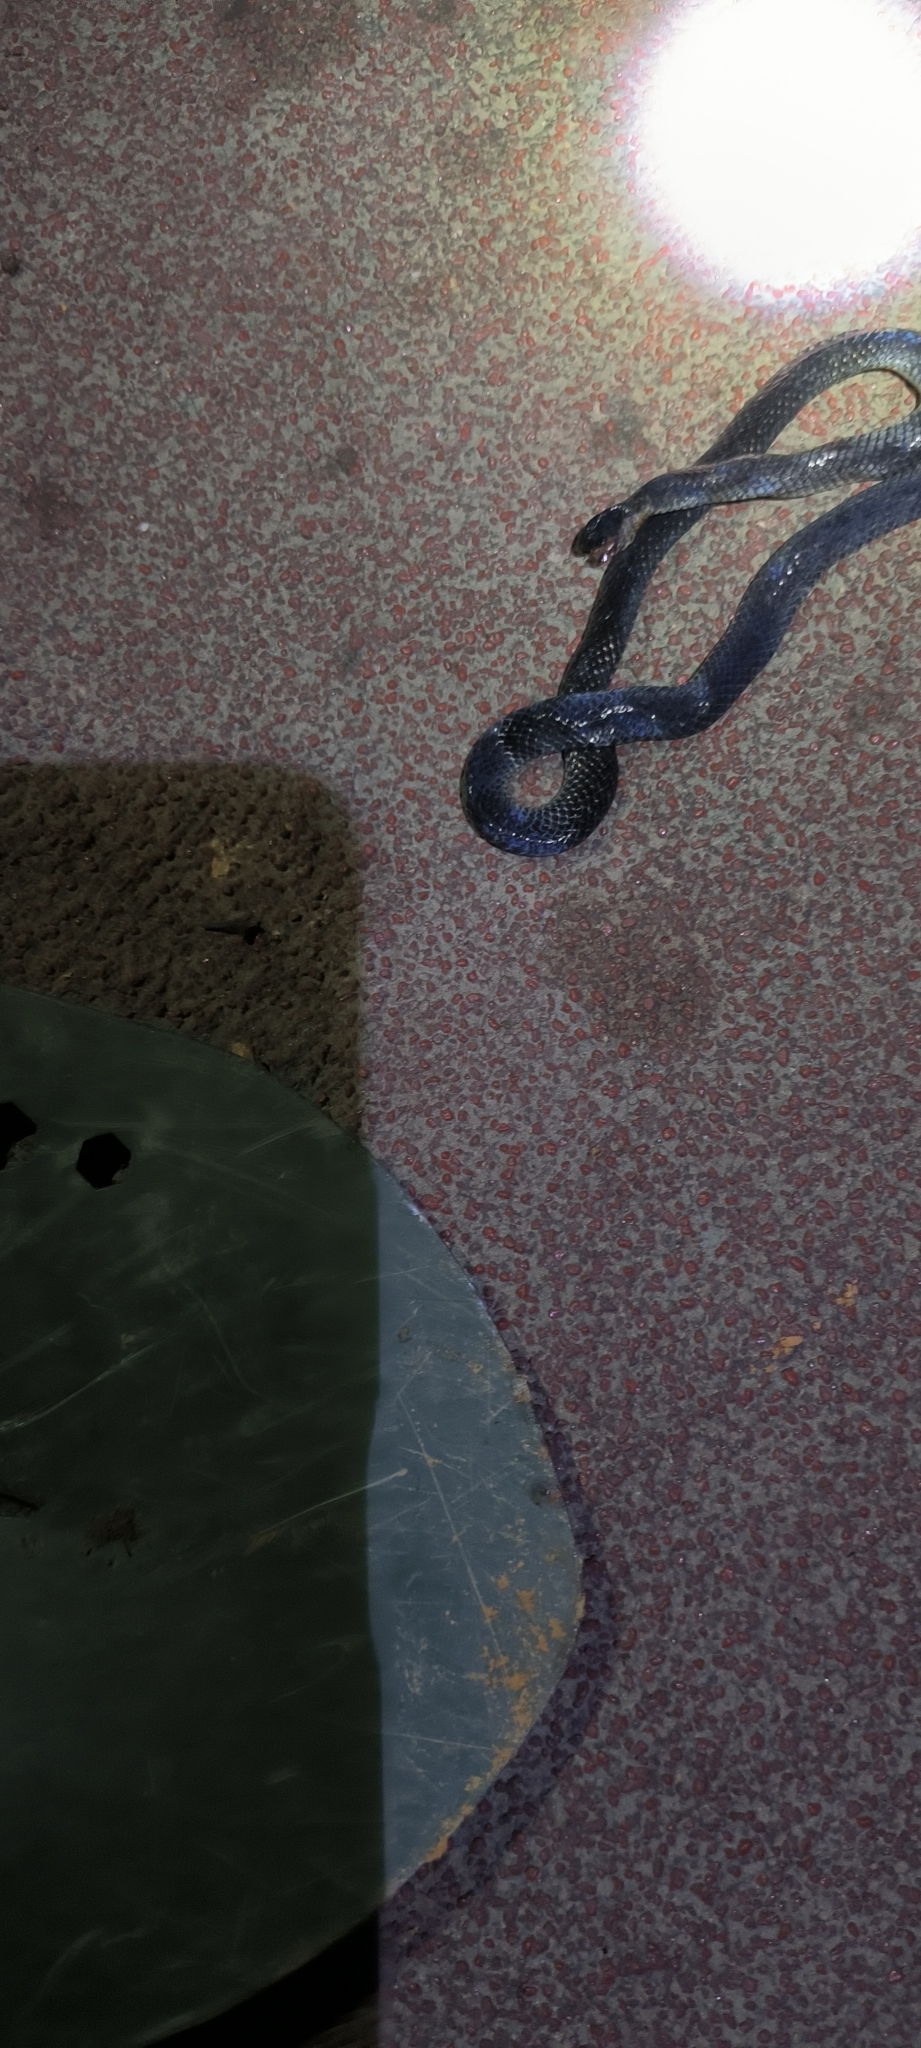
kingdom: Animalia
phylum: Chordata
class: Squamata
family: Colubridae
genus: Calamaria
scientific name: Calamaria septentrionalis
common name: Hong kong dwarf snake
